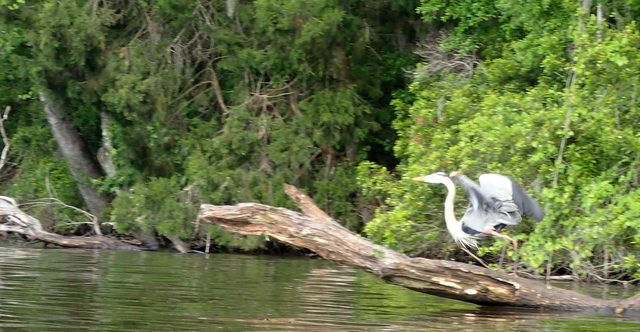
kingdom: Animalia
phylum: Chordata
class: Aves
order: Pelecaniformes
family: Ardeidae
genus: Ardea
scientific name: Ardea herodias
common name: Great blue heron
